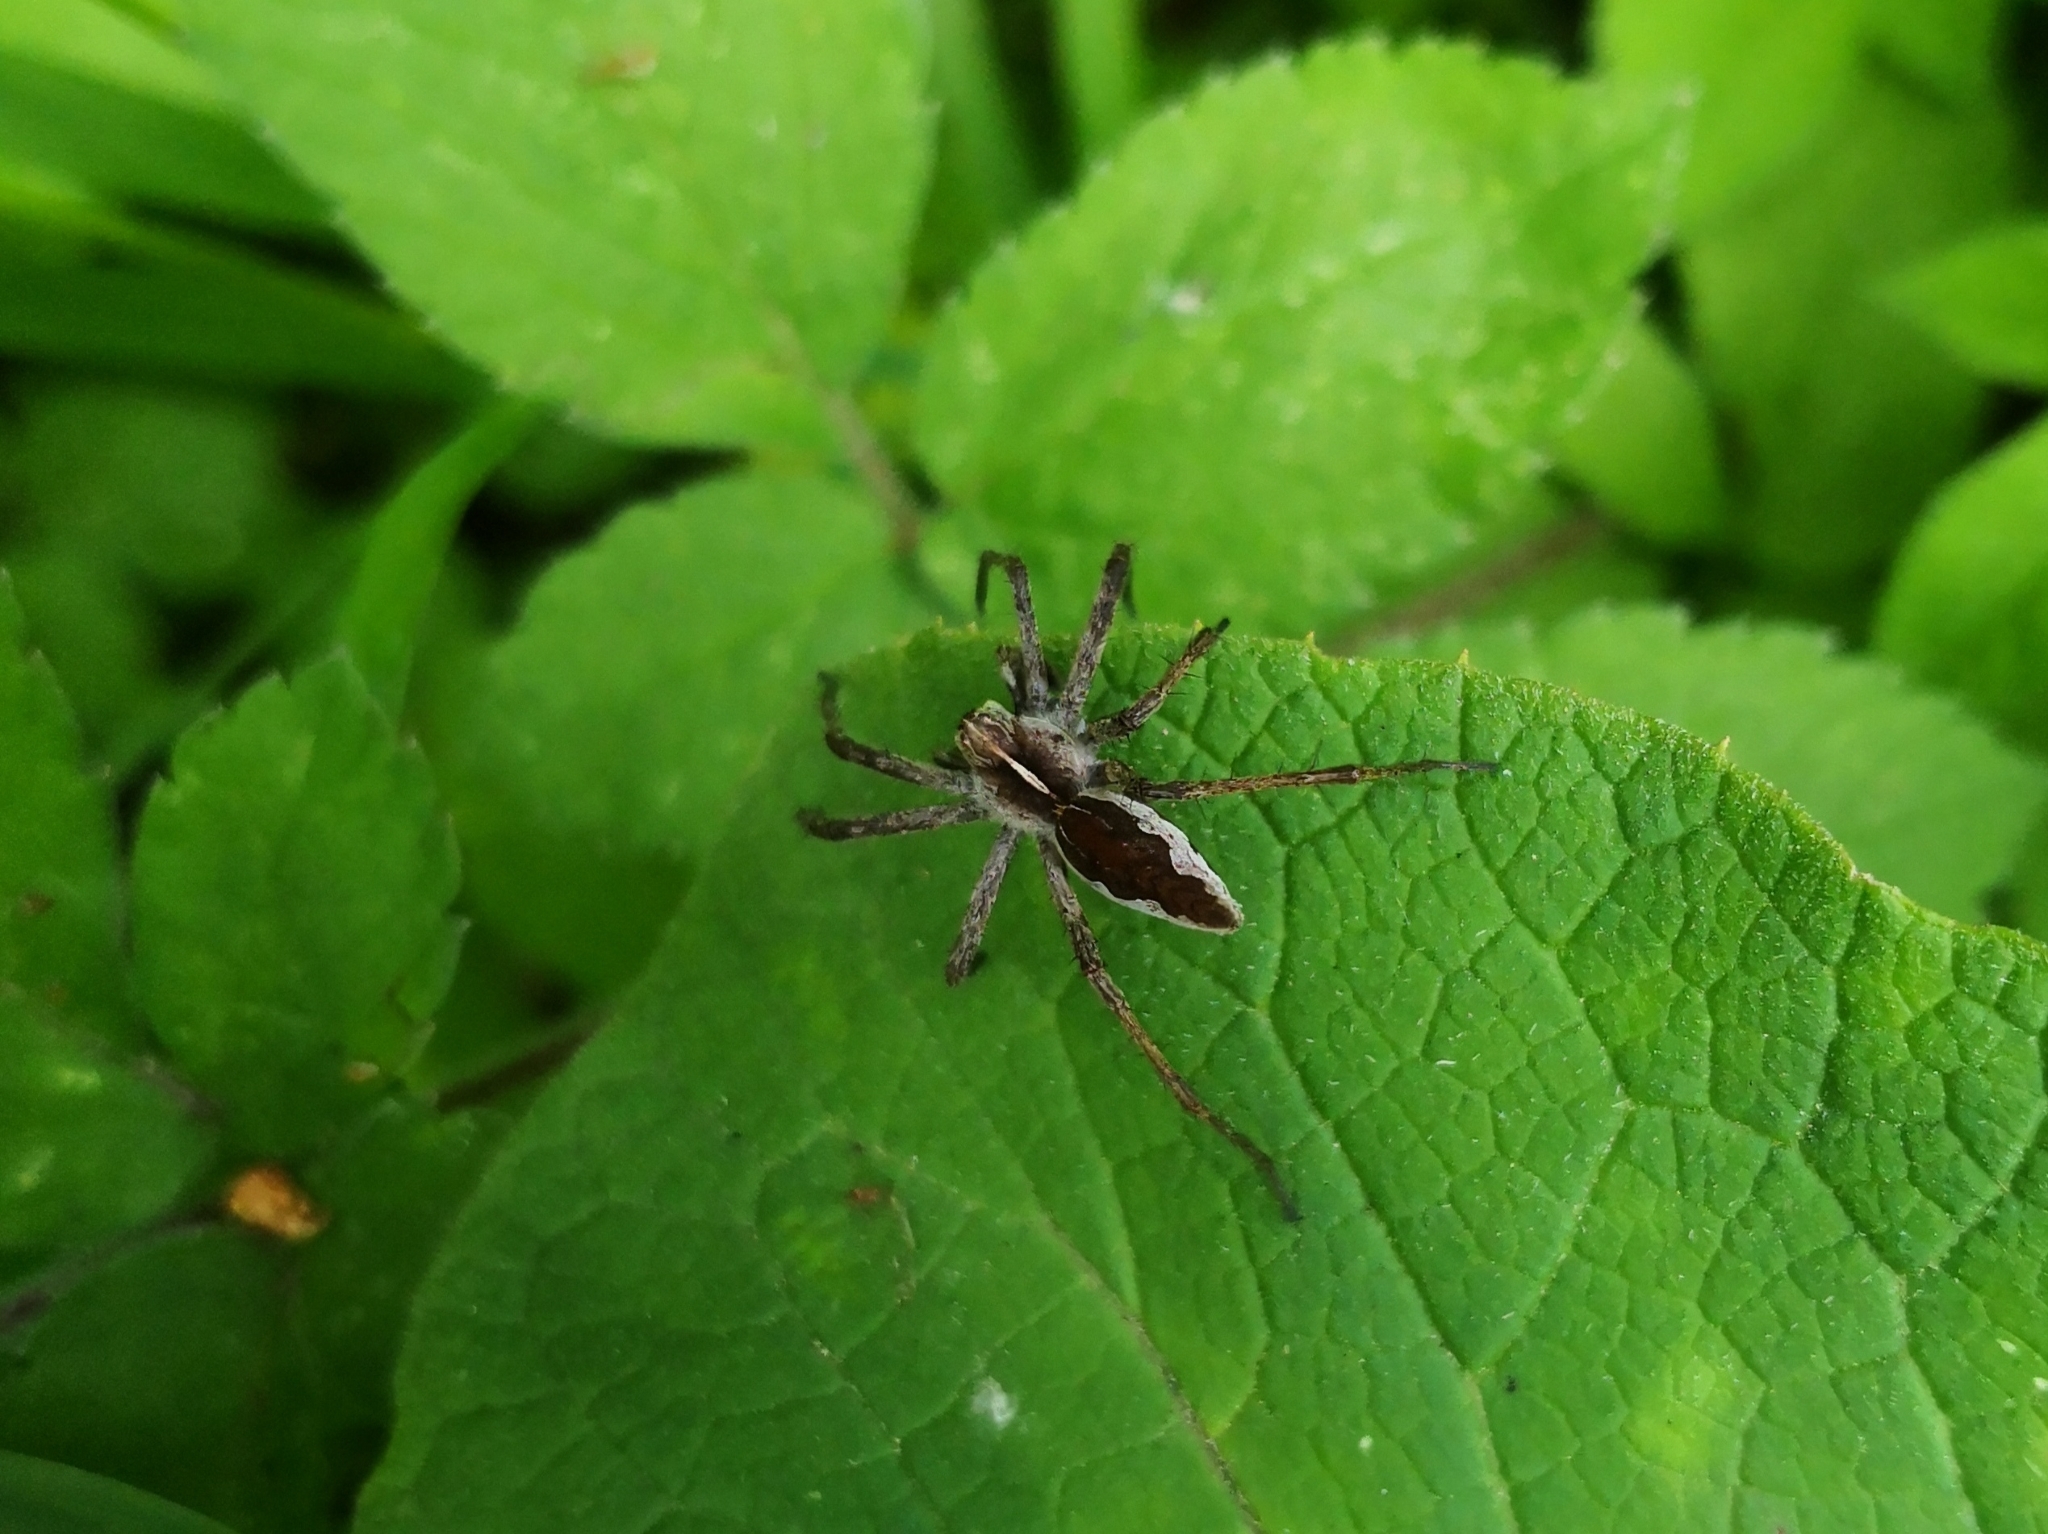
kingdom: Animalia
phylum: Arthropoda
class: Arachnida
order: Araneae
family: Pisauridae
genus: Pisaura
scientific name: Pisaura mirabilis
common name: Tent spider
